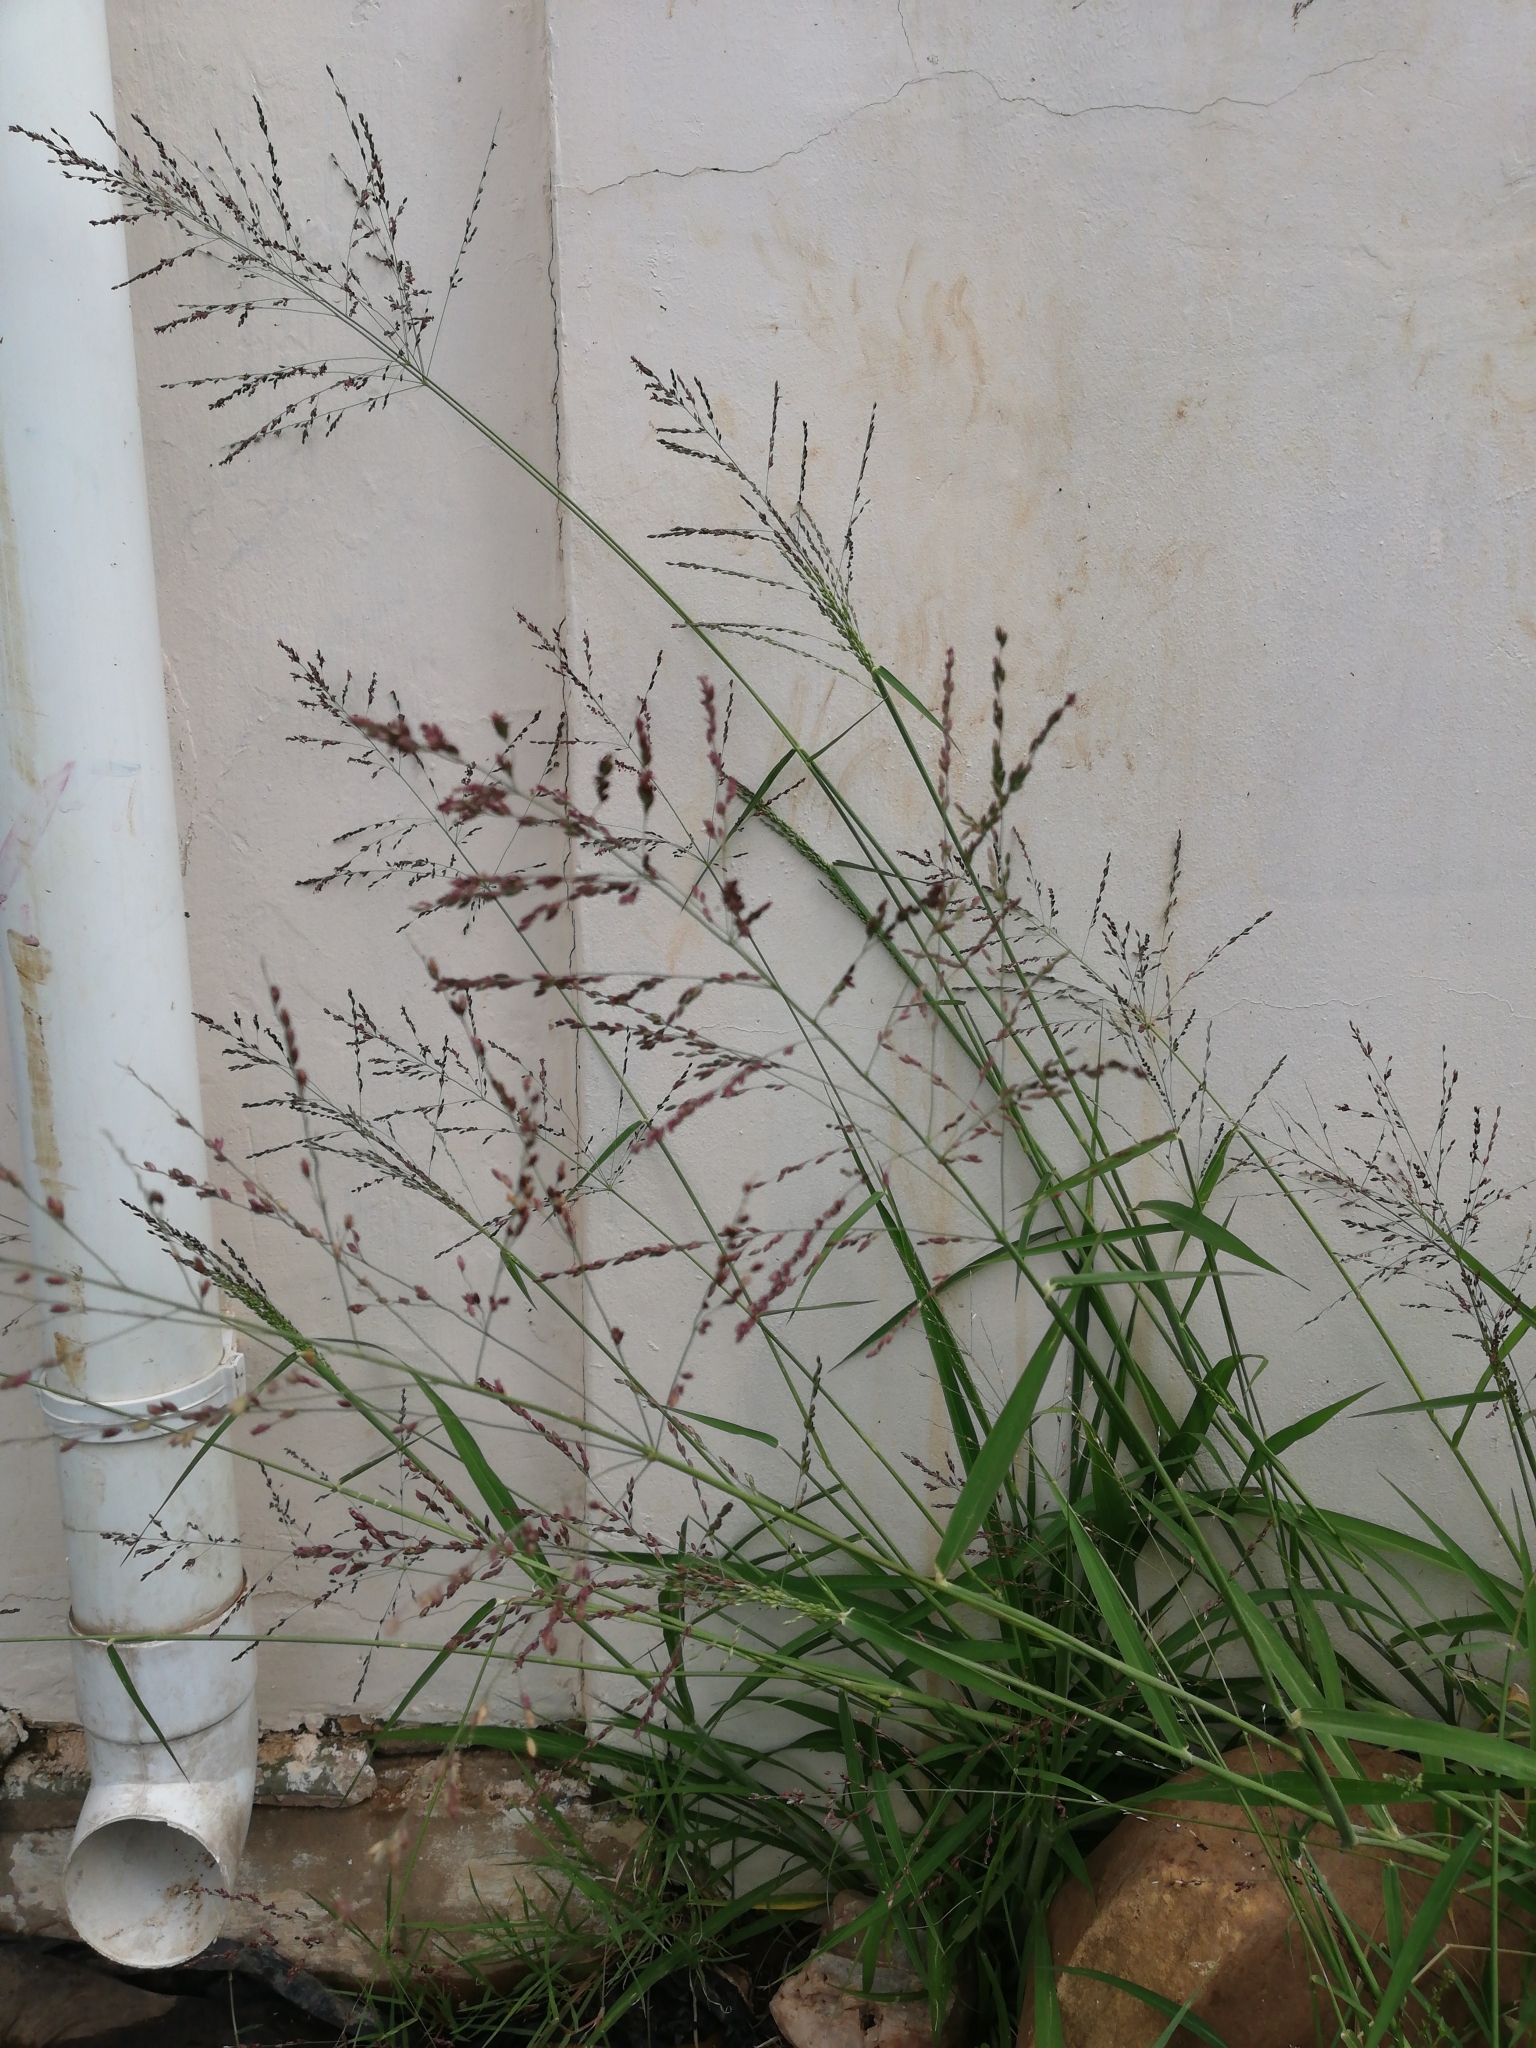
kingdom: Plantae
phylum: Tracheophyta
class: Liliopsida
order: Poales
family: Poaceae
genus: Megathyrsus
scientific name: Megathyrsus maximus
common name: Guineagrass
